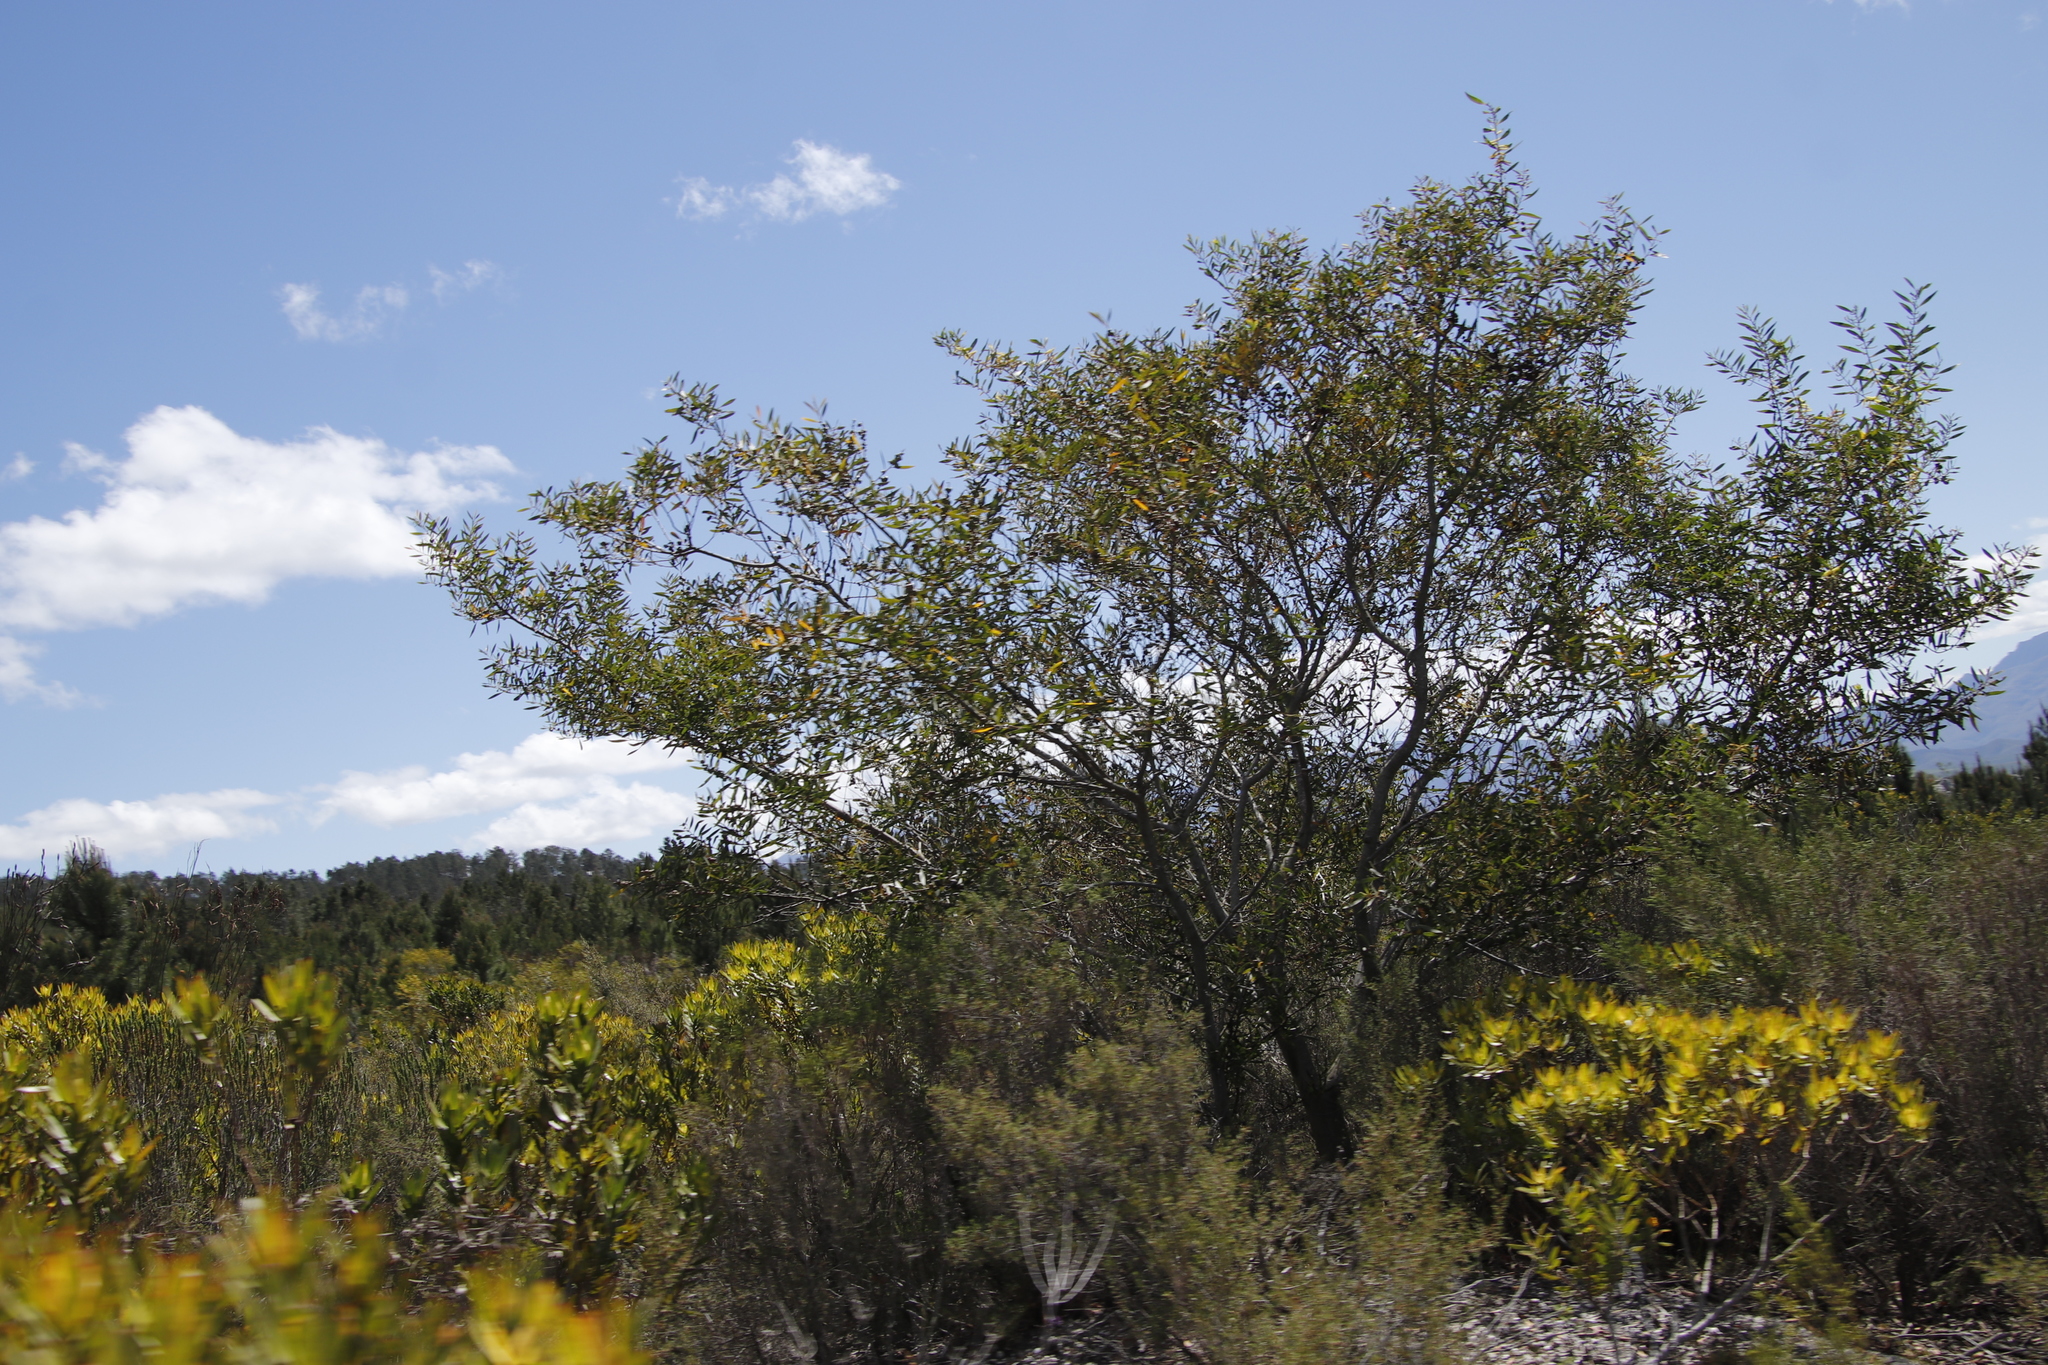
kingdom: Plantae
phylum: Tracheophyta
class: Magnoliopsida
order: Fabales
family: Fabaceae
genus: Acacia
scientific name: Acacia longifolia
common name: Sydney golden wattle
